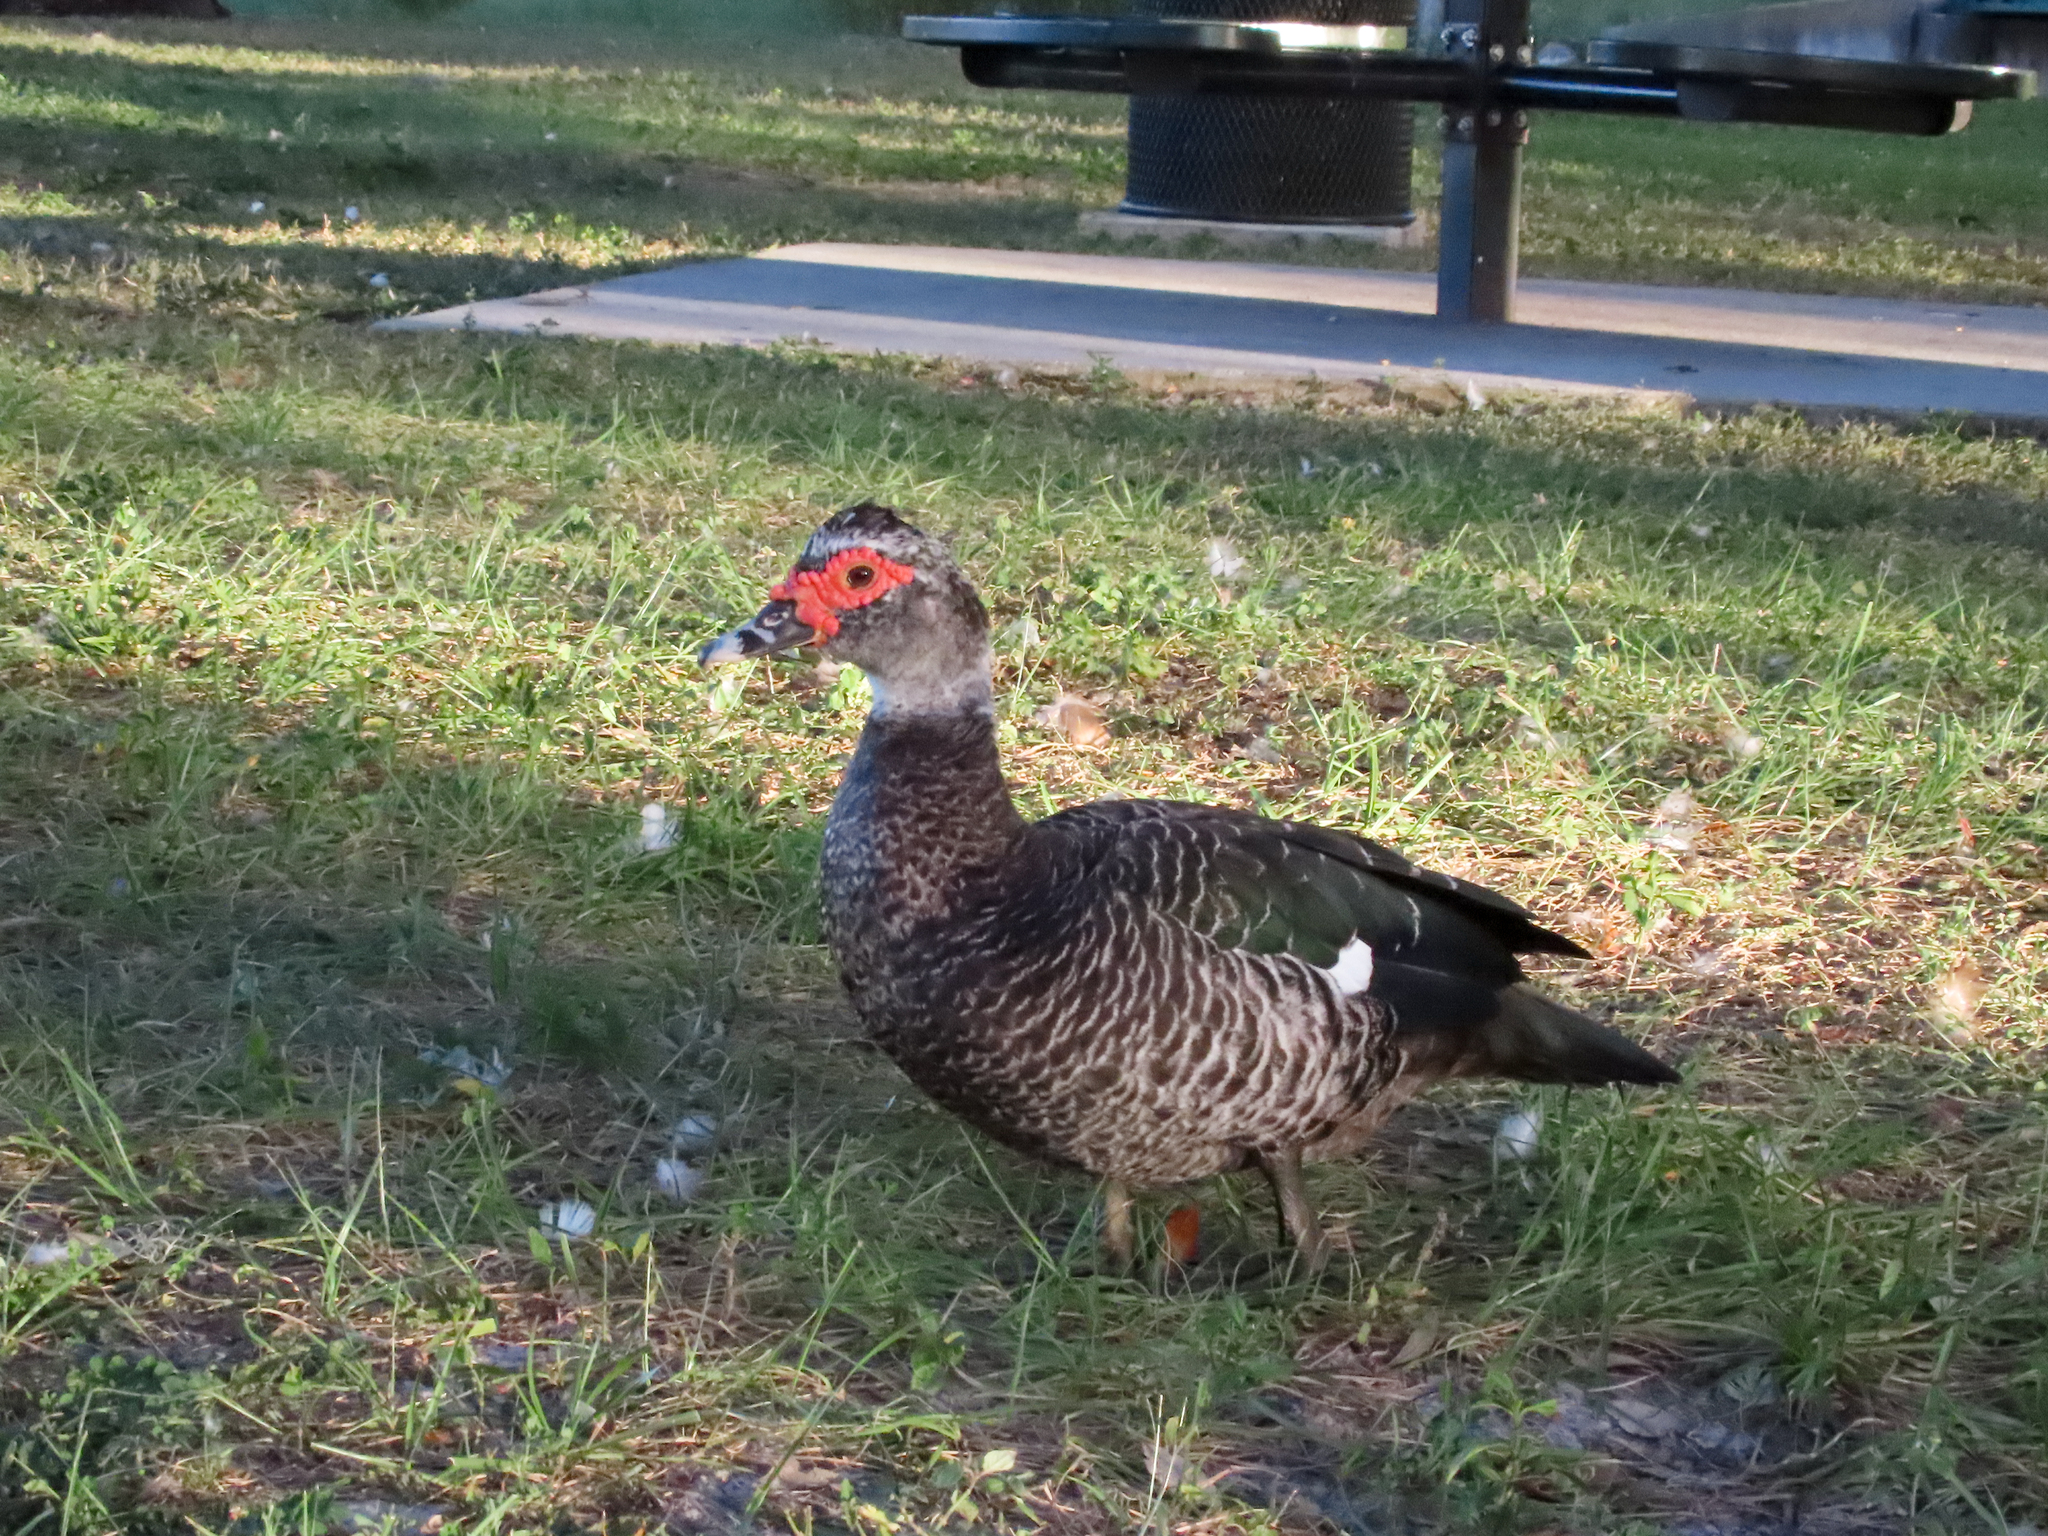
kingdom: Animalia
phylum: Chordata
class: Aves
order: Anseriformes
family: Anatidae
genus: Cairina
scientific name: Cairina moschata
